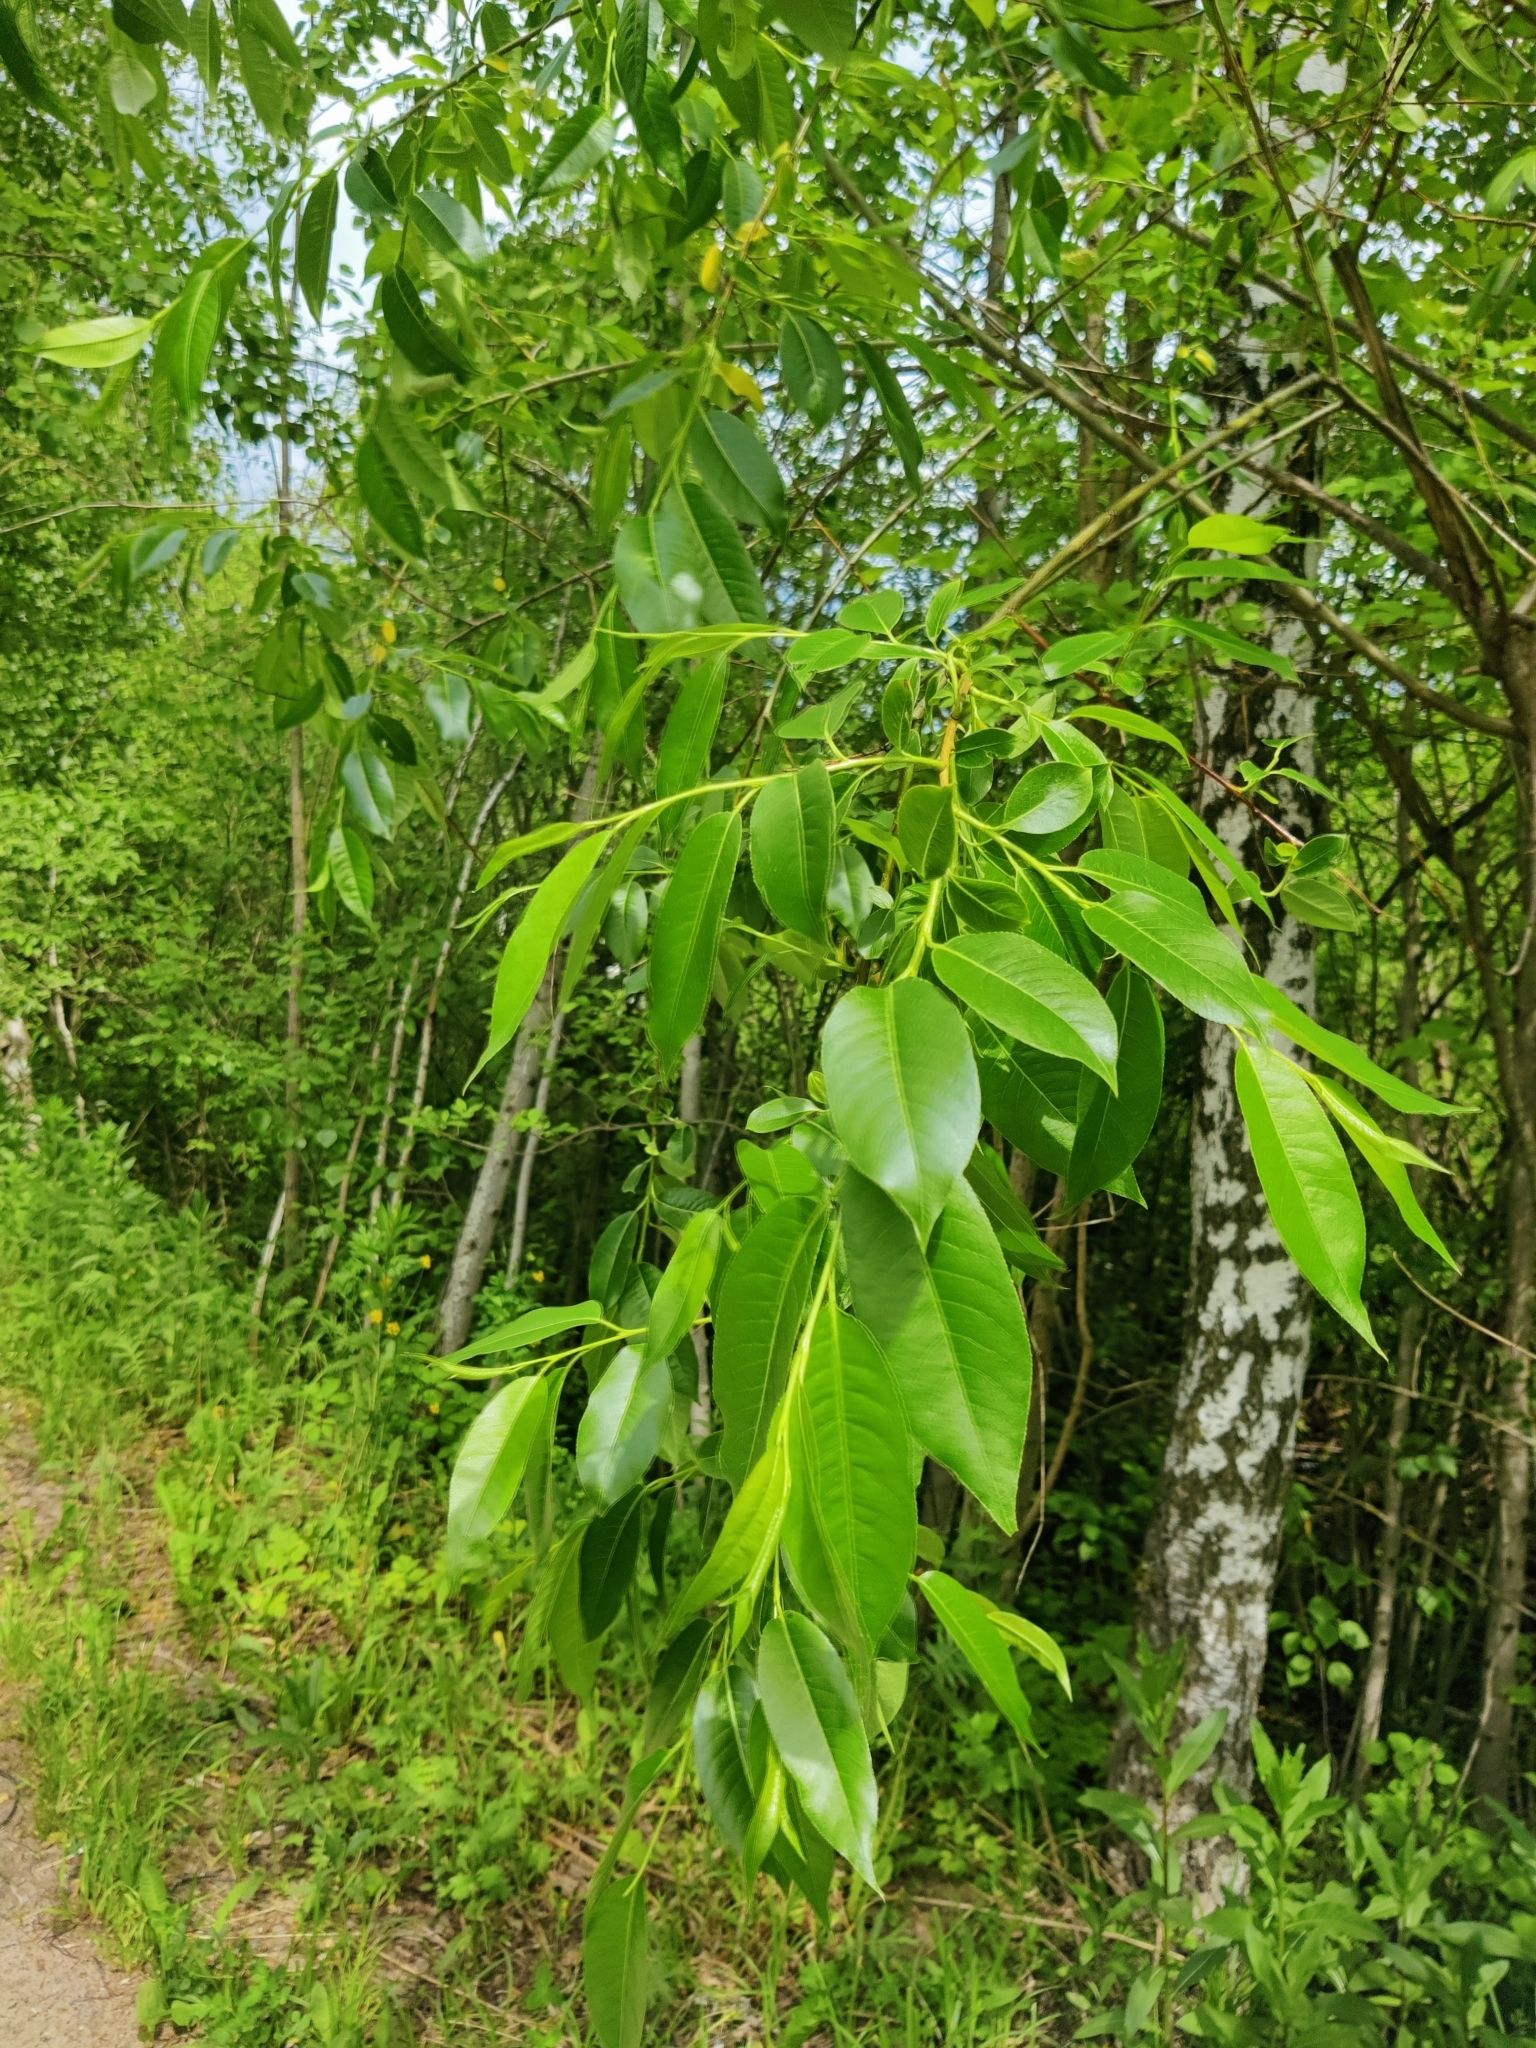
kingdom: Plantae
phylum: Tracheophyta
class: Magnoliopsida
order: Malpighiales
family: Salicaceae
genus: Salix
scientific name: Salix pentandra
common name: Bay willow
